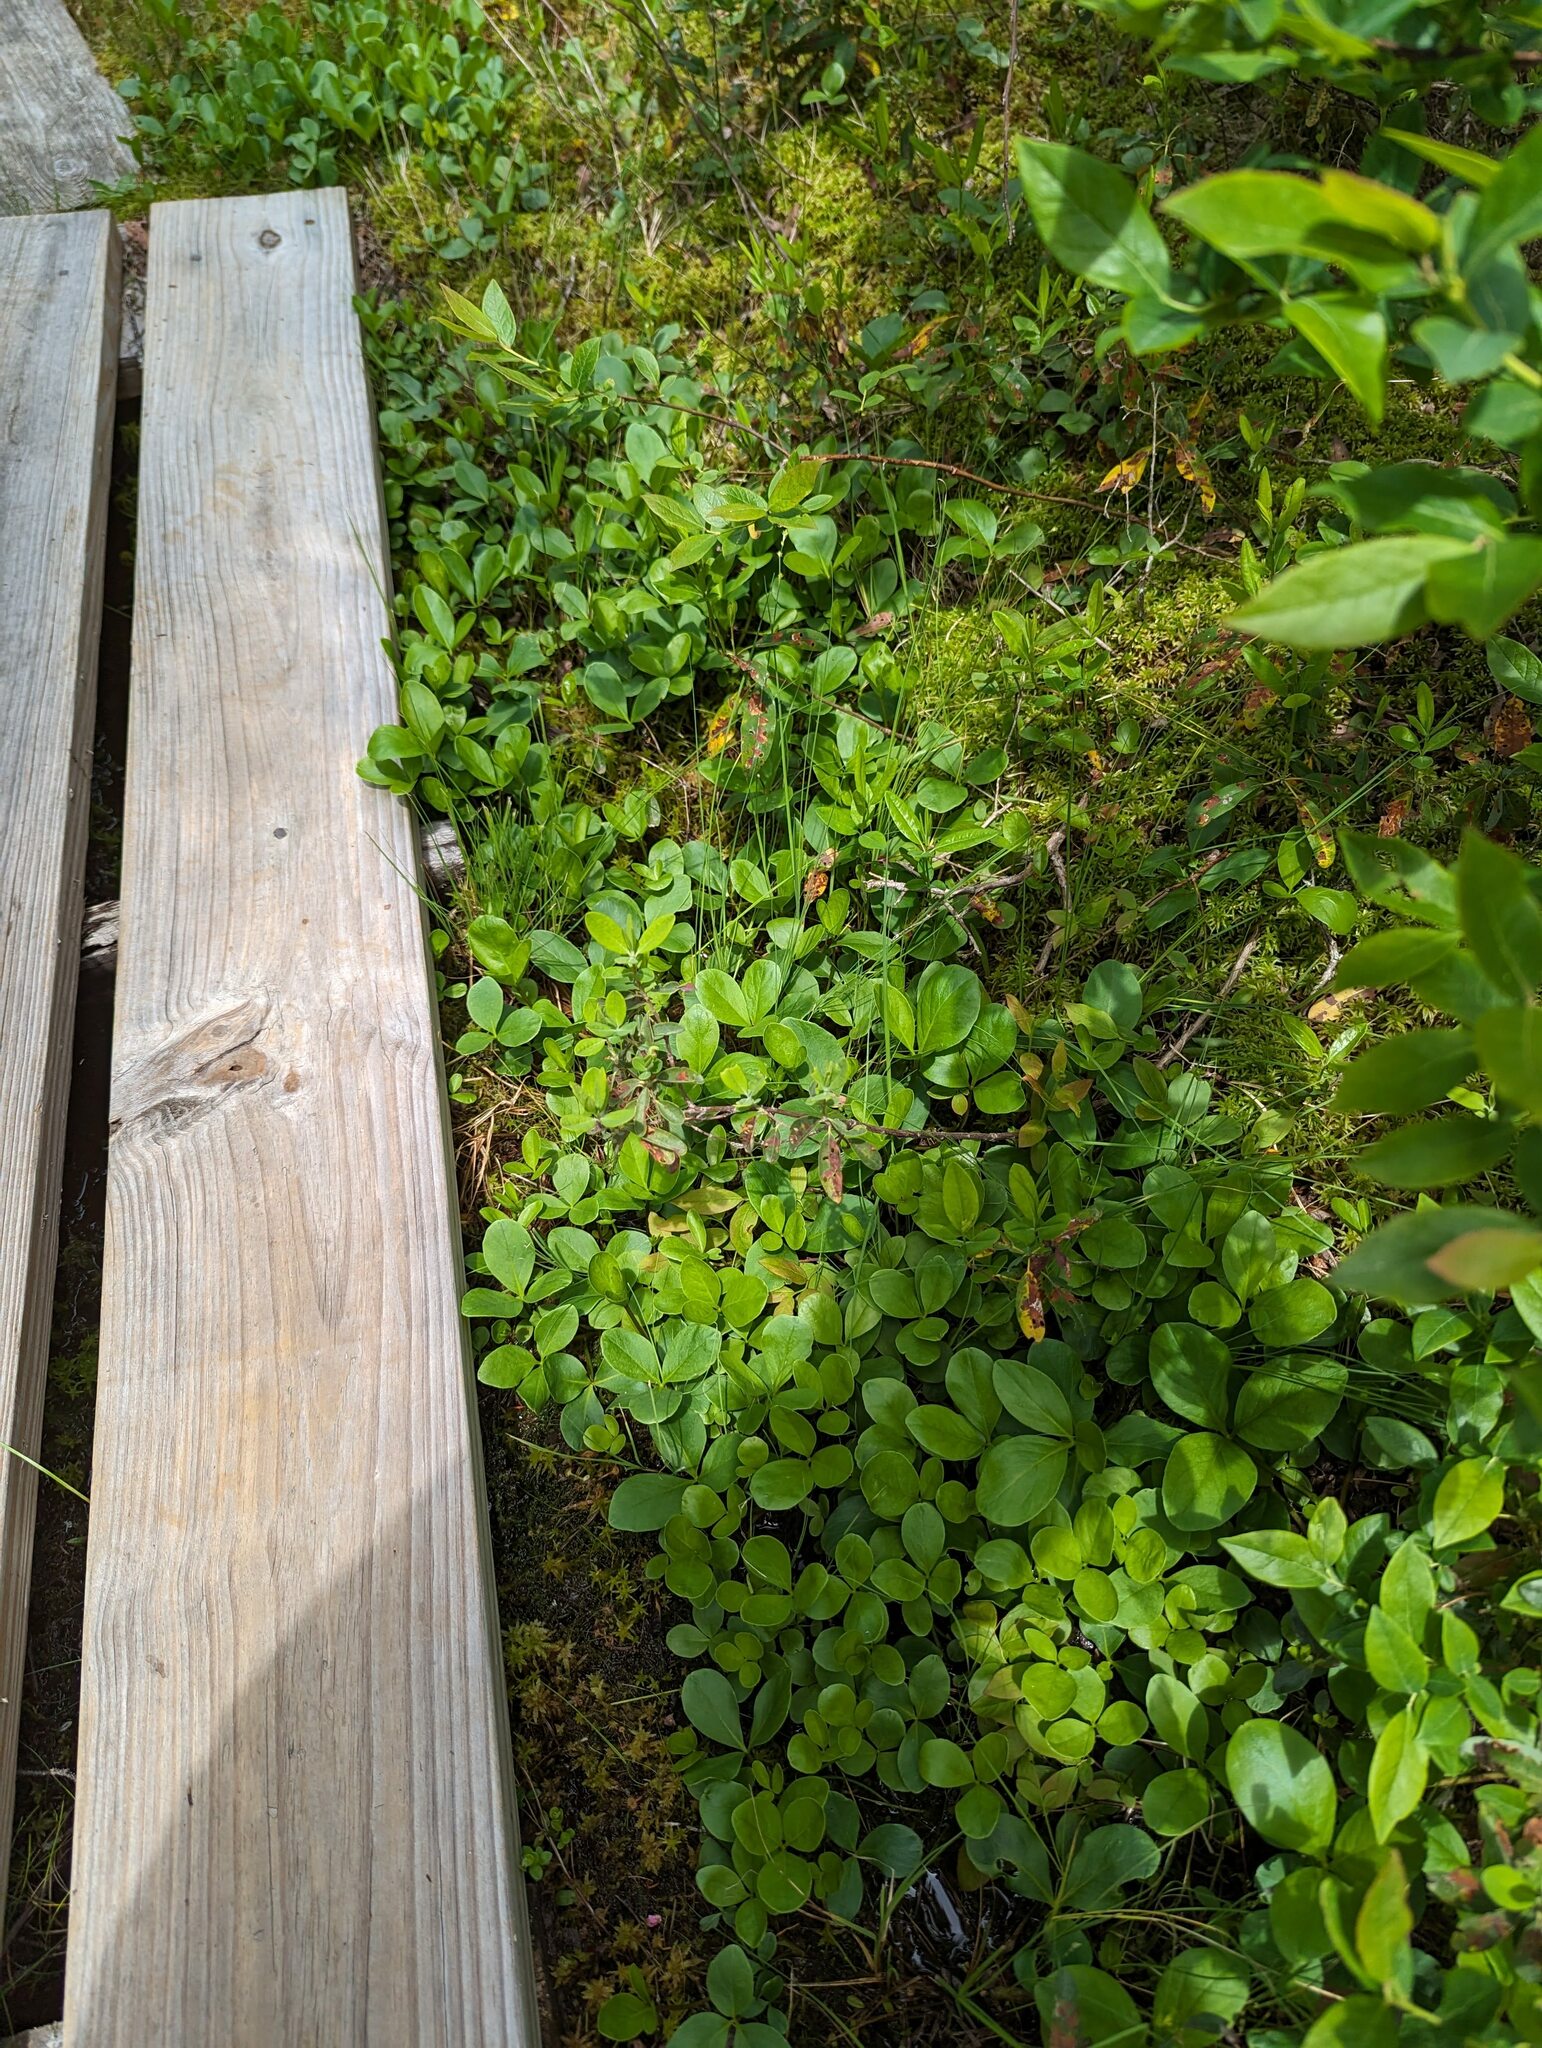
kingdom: Plantae
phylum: Tracheophyta
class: Magnoliopsida
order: Asterales
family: Menyanthaceae
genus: Menyanthes
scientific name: Menyanthes trifoliata
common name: Bogbean
